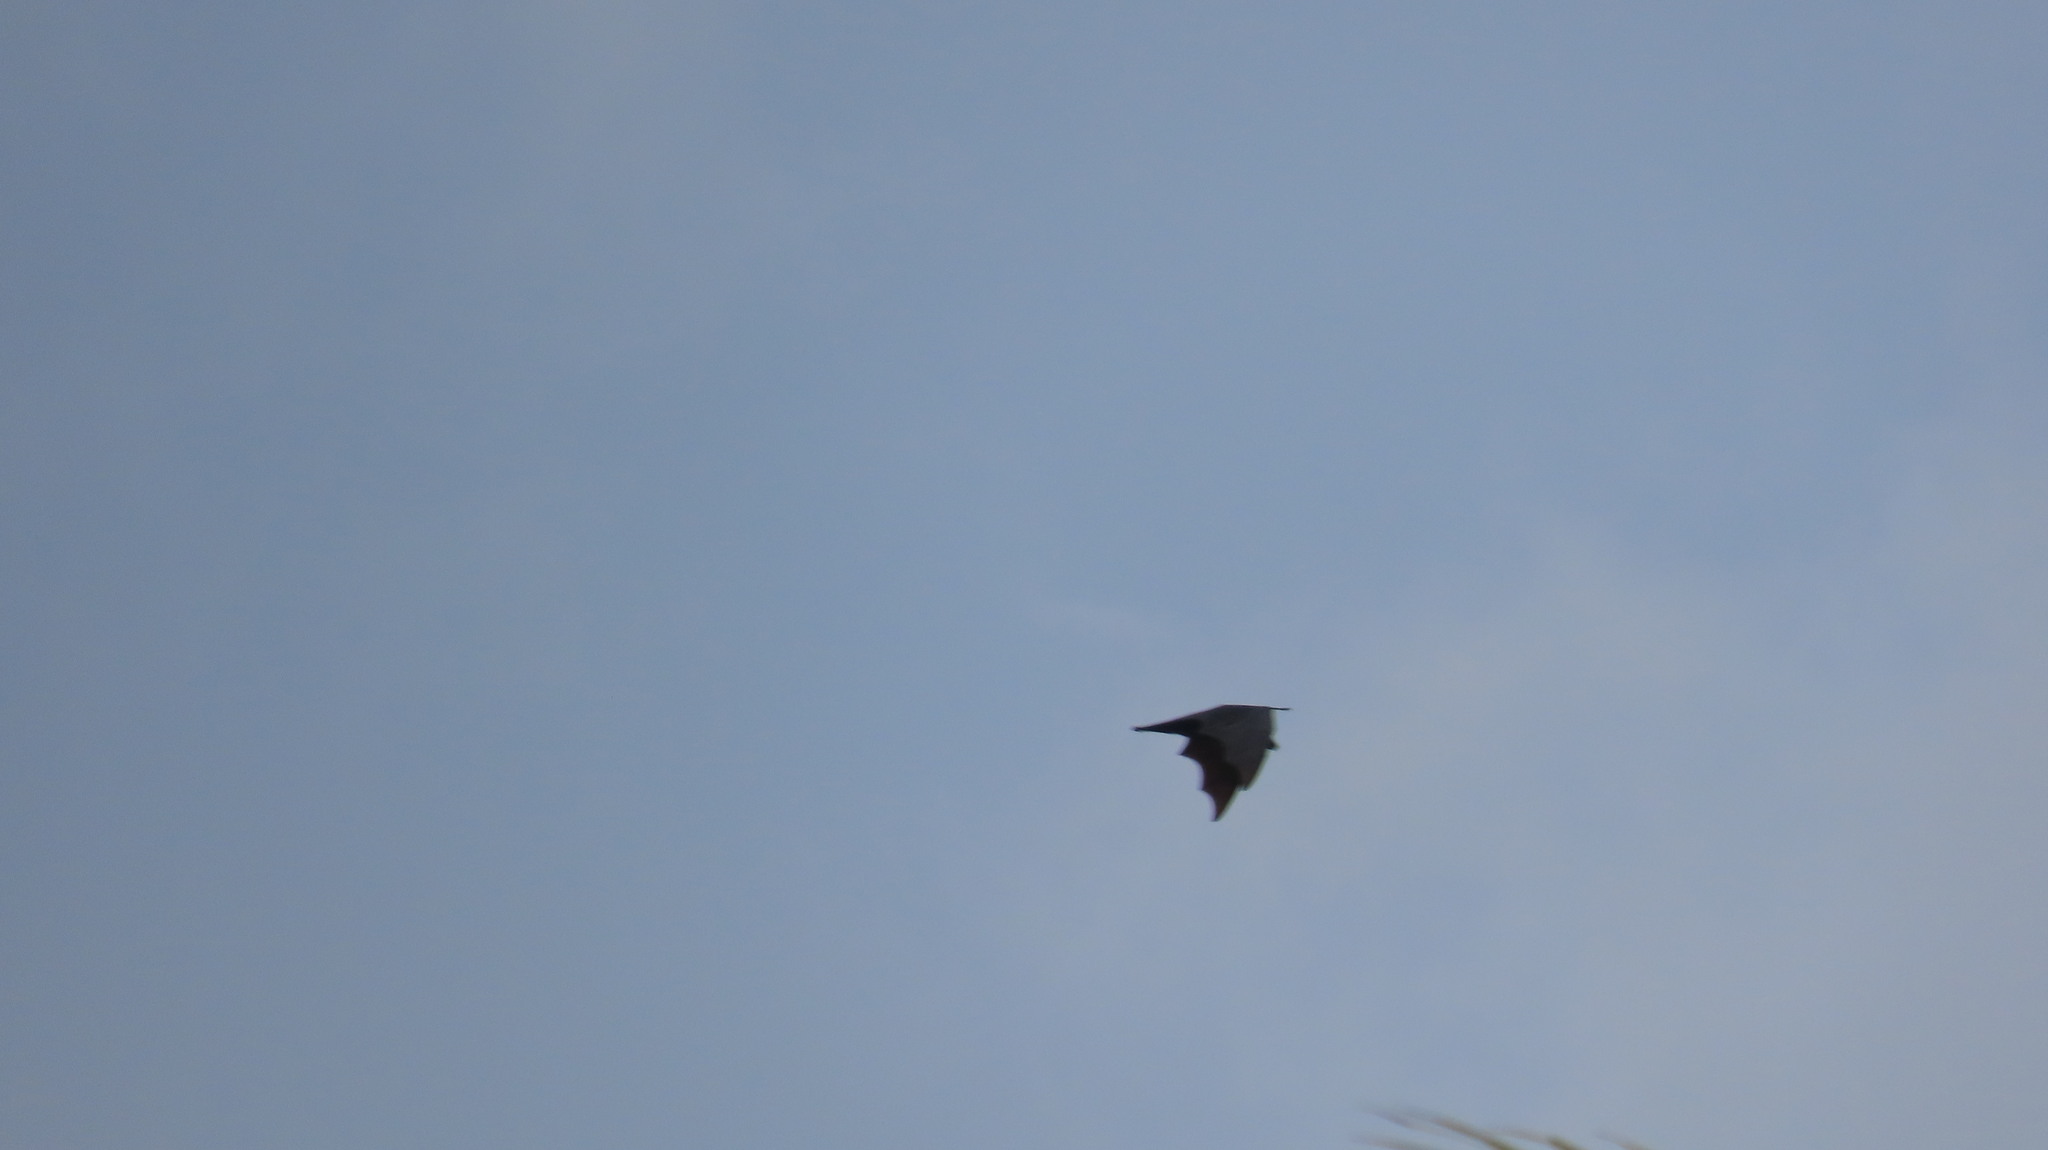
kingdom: Animalia
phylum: Chordata
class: Mammalia
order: Chiroptera
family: Pteropodidae
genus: Pteropus
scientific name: Pteropus vampyrus
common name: Large flying fox
